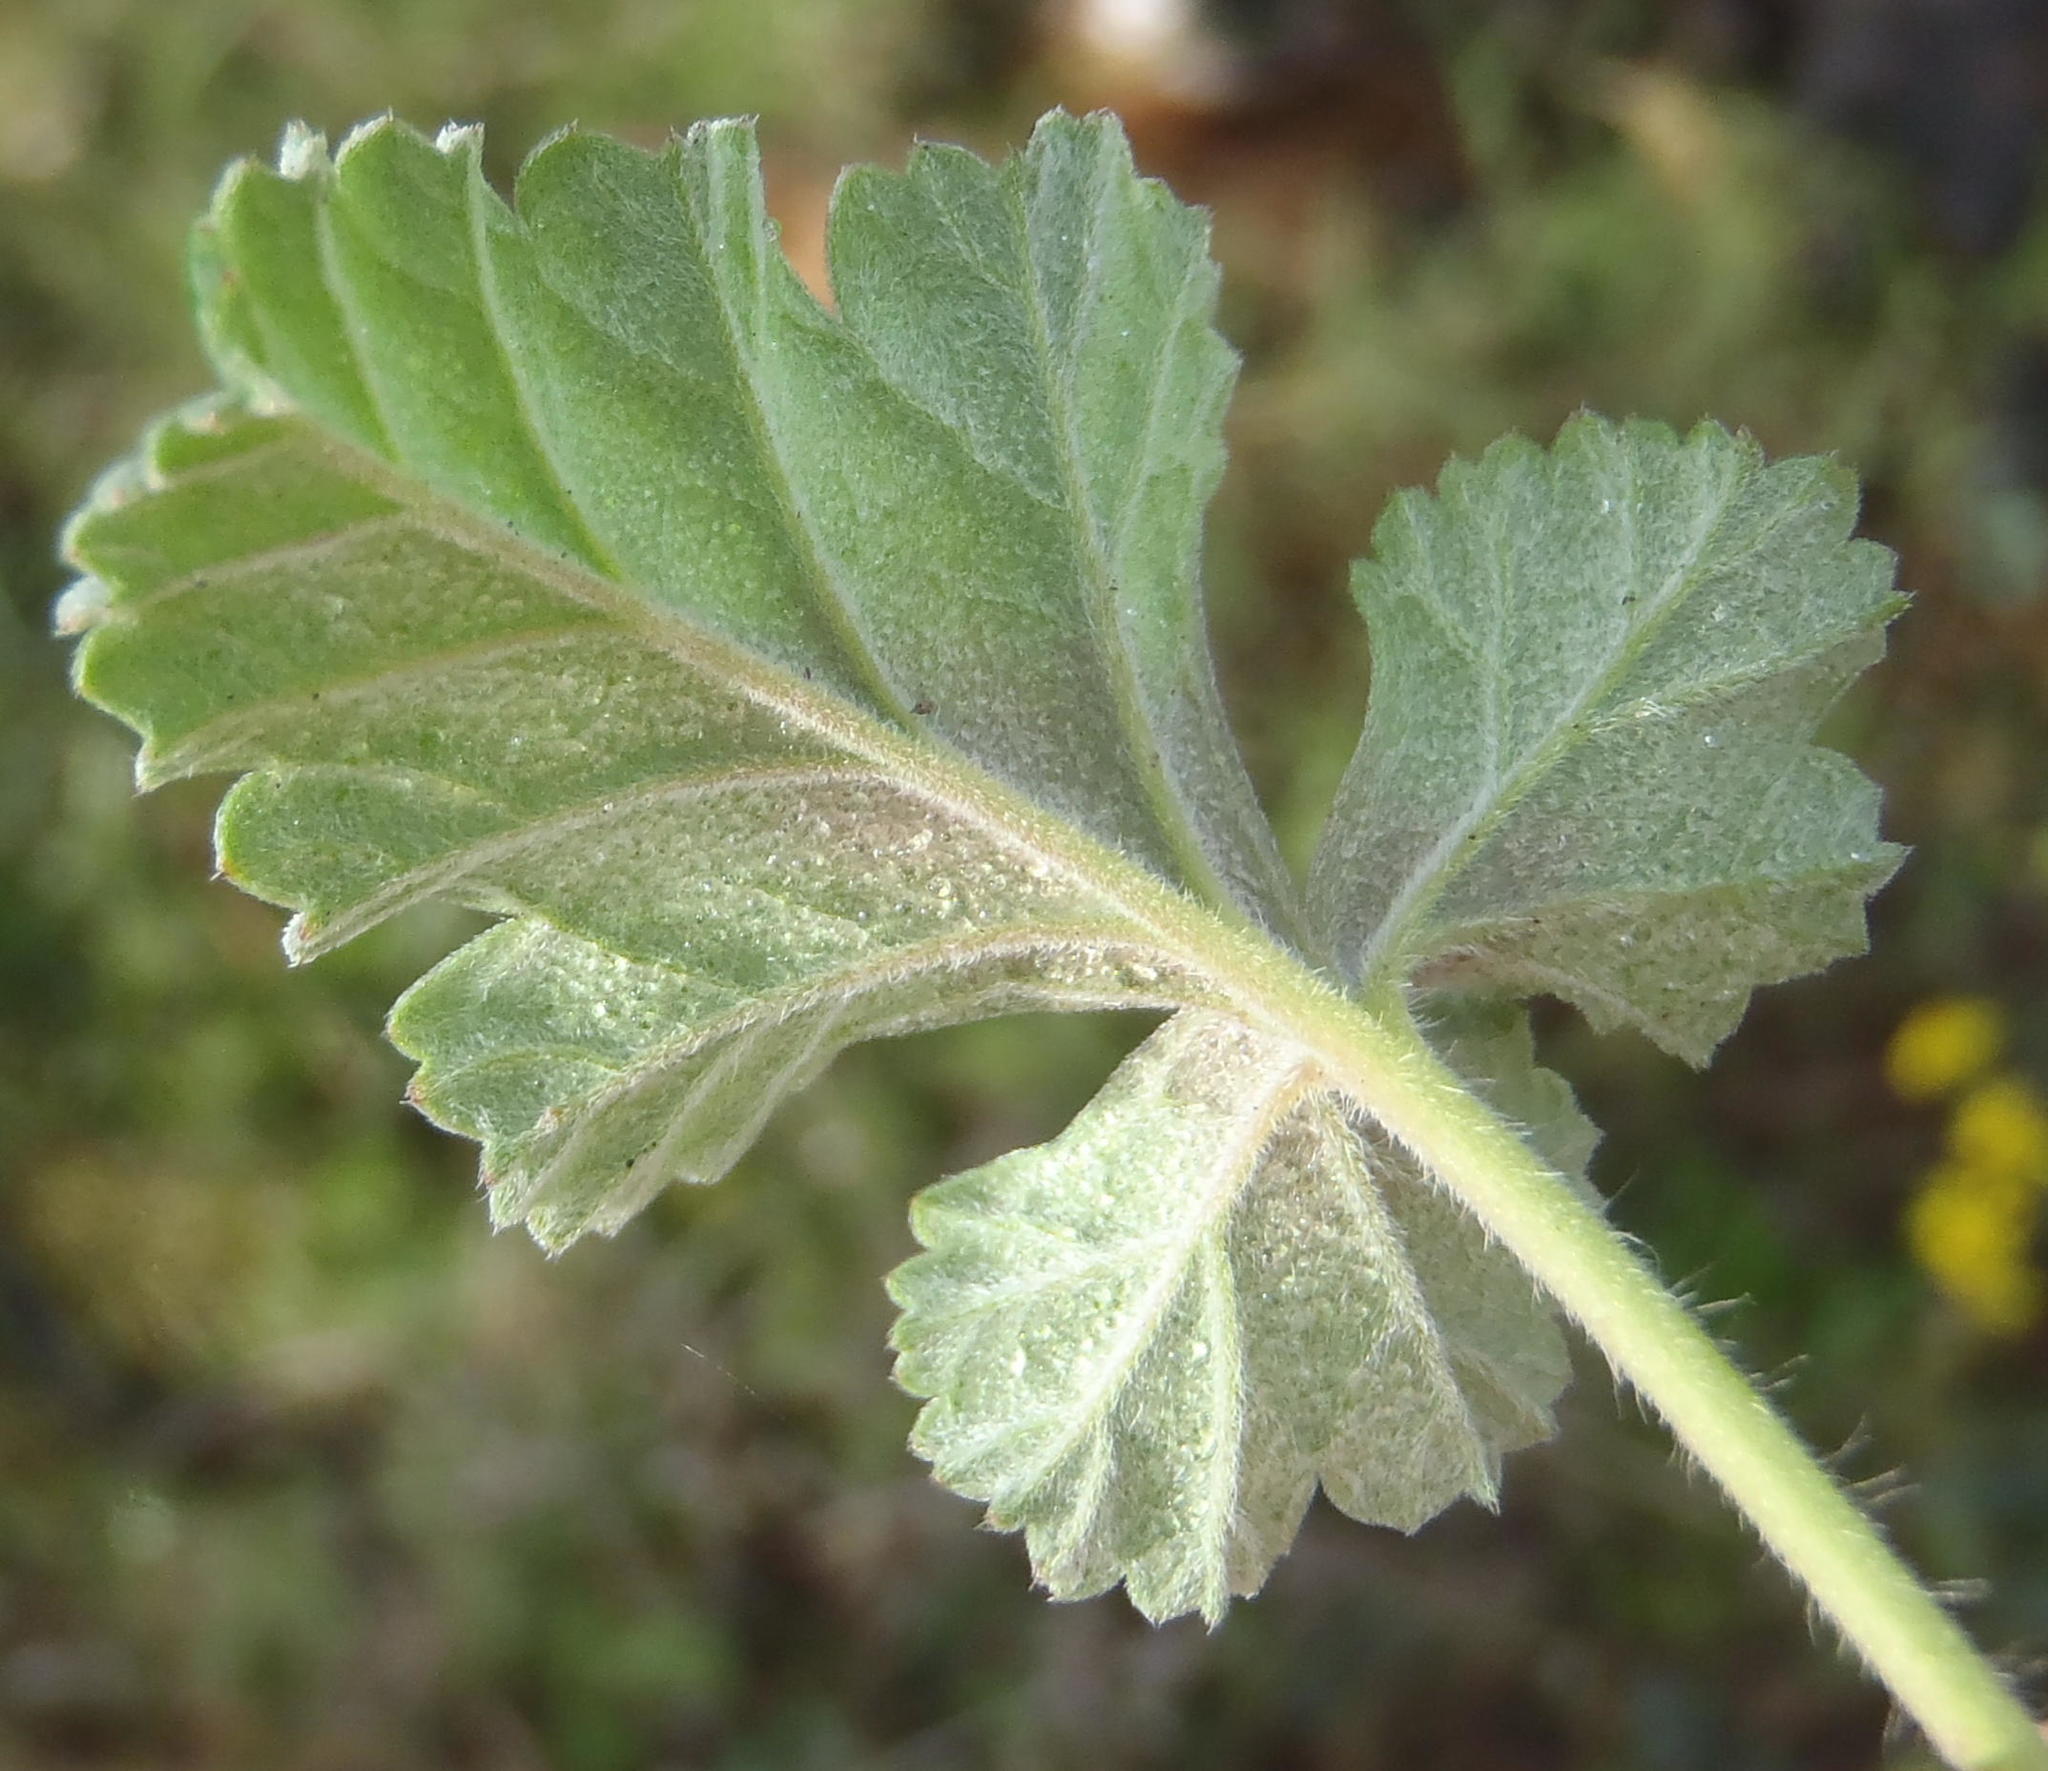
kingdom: Plantae
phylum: Tracheophyta
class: Magnoliopsida
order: Geraniales
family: Geraniaceae
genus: Pelargonium
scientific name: Pelargonium candicans
